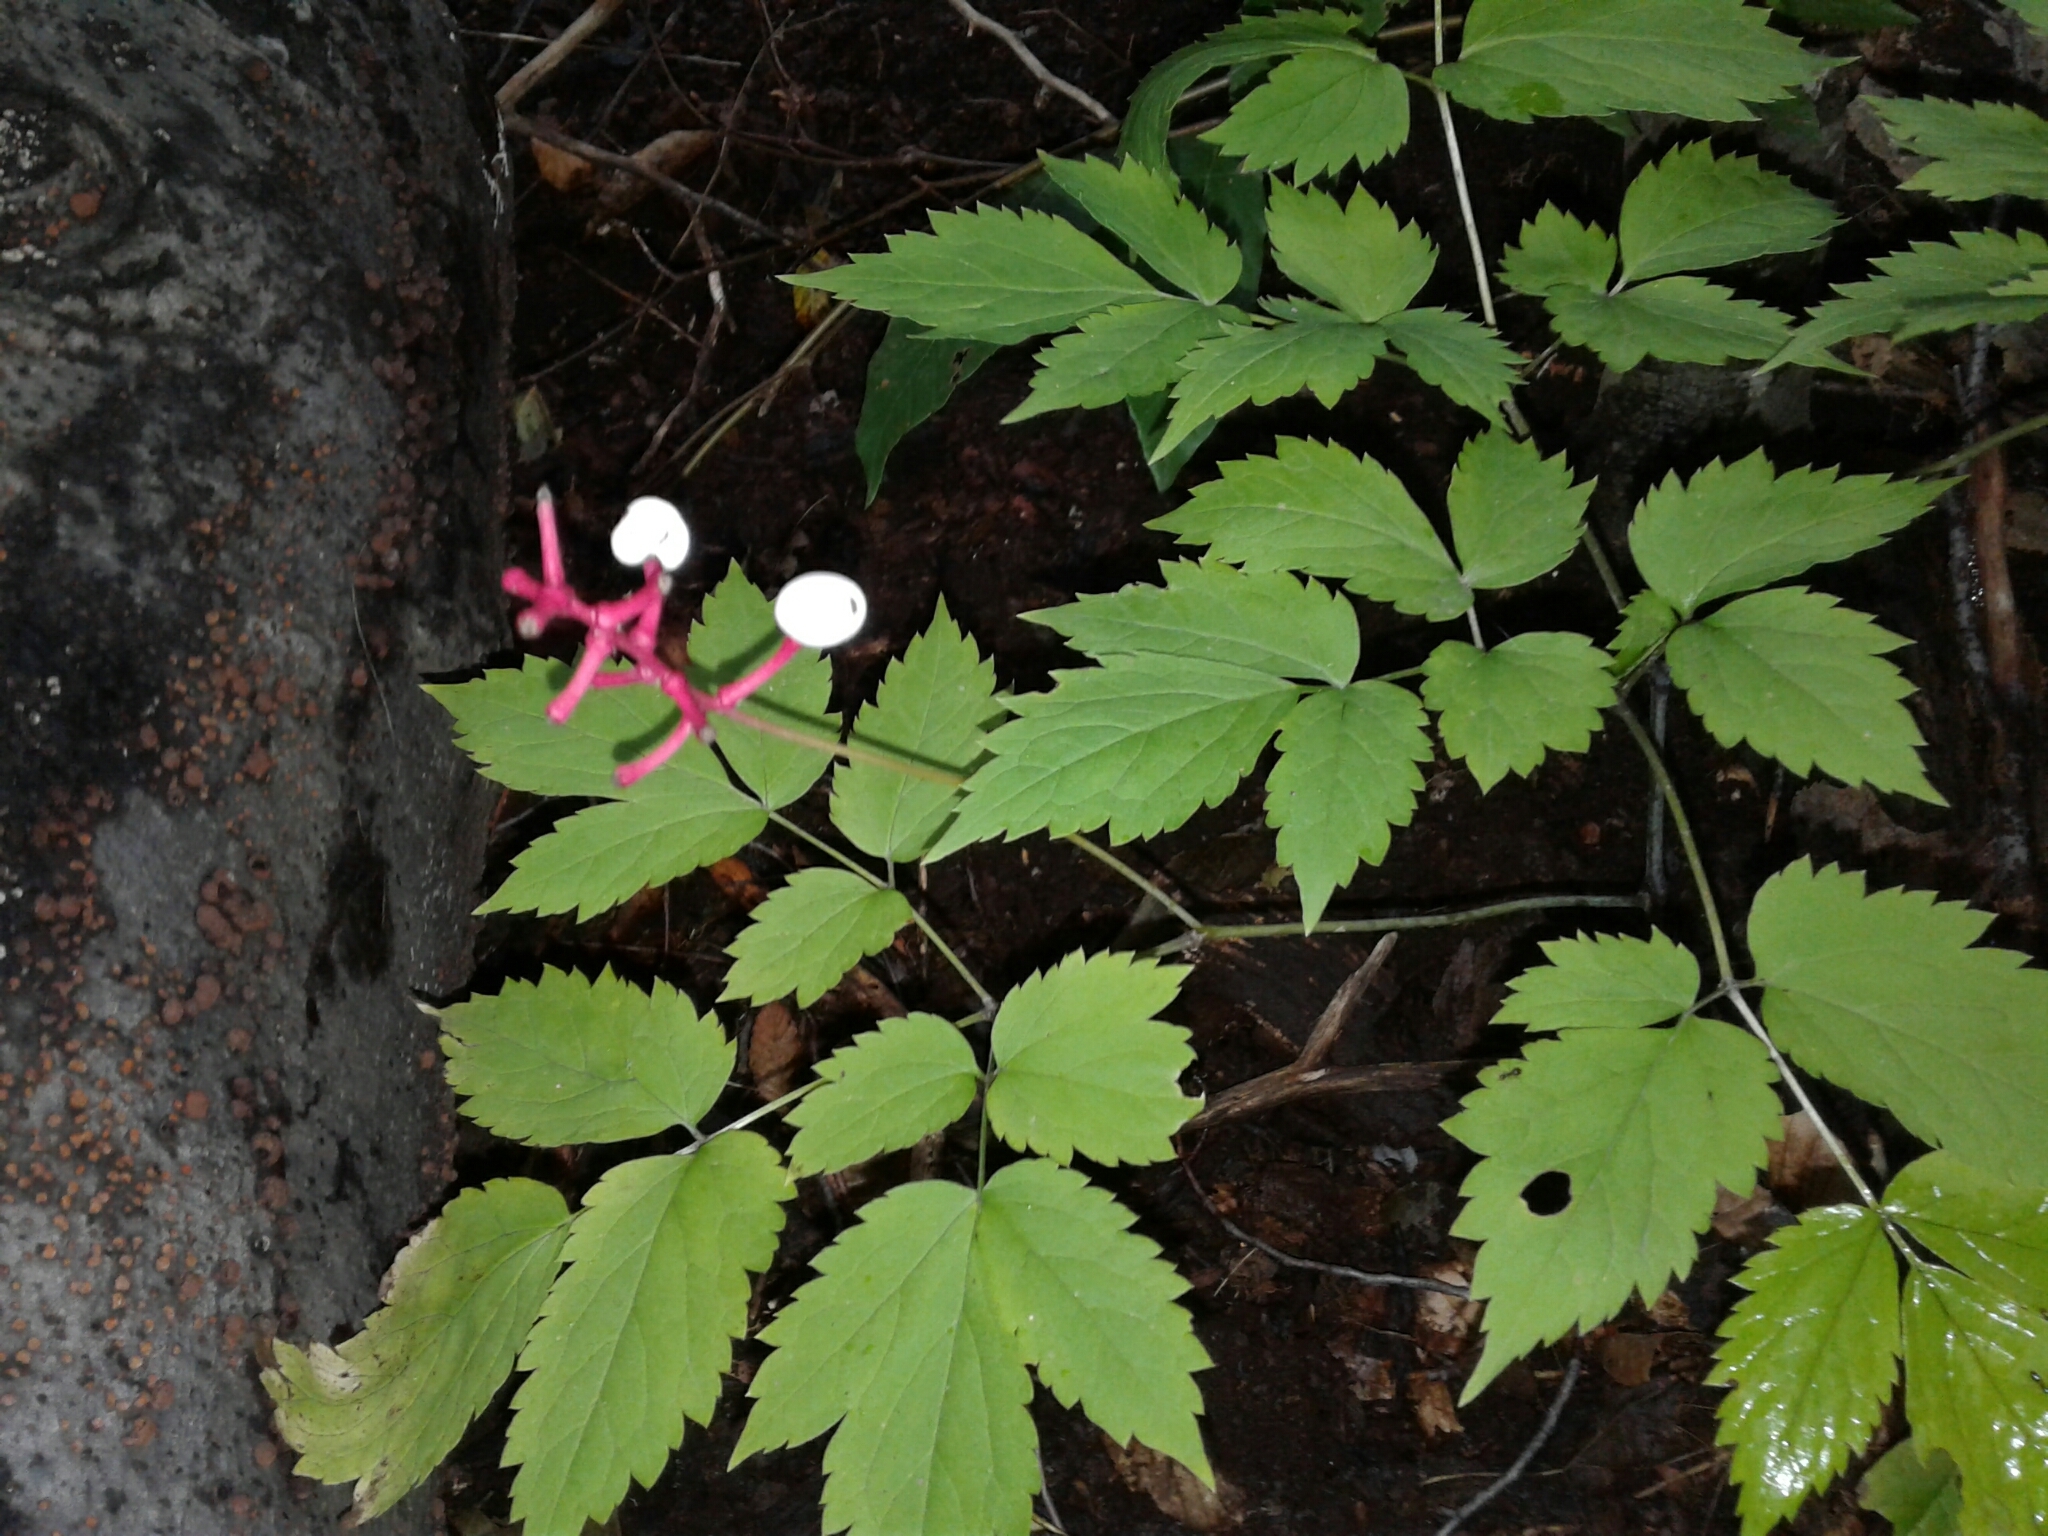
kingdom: Plantae
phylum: Tracheophyta
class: Magnoliopsida
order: Ranunculales
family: Ranunculaceae
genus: Actaea
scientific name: Actaea pachypoda
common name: Doll's-eyes
